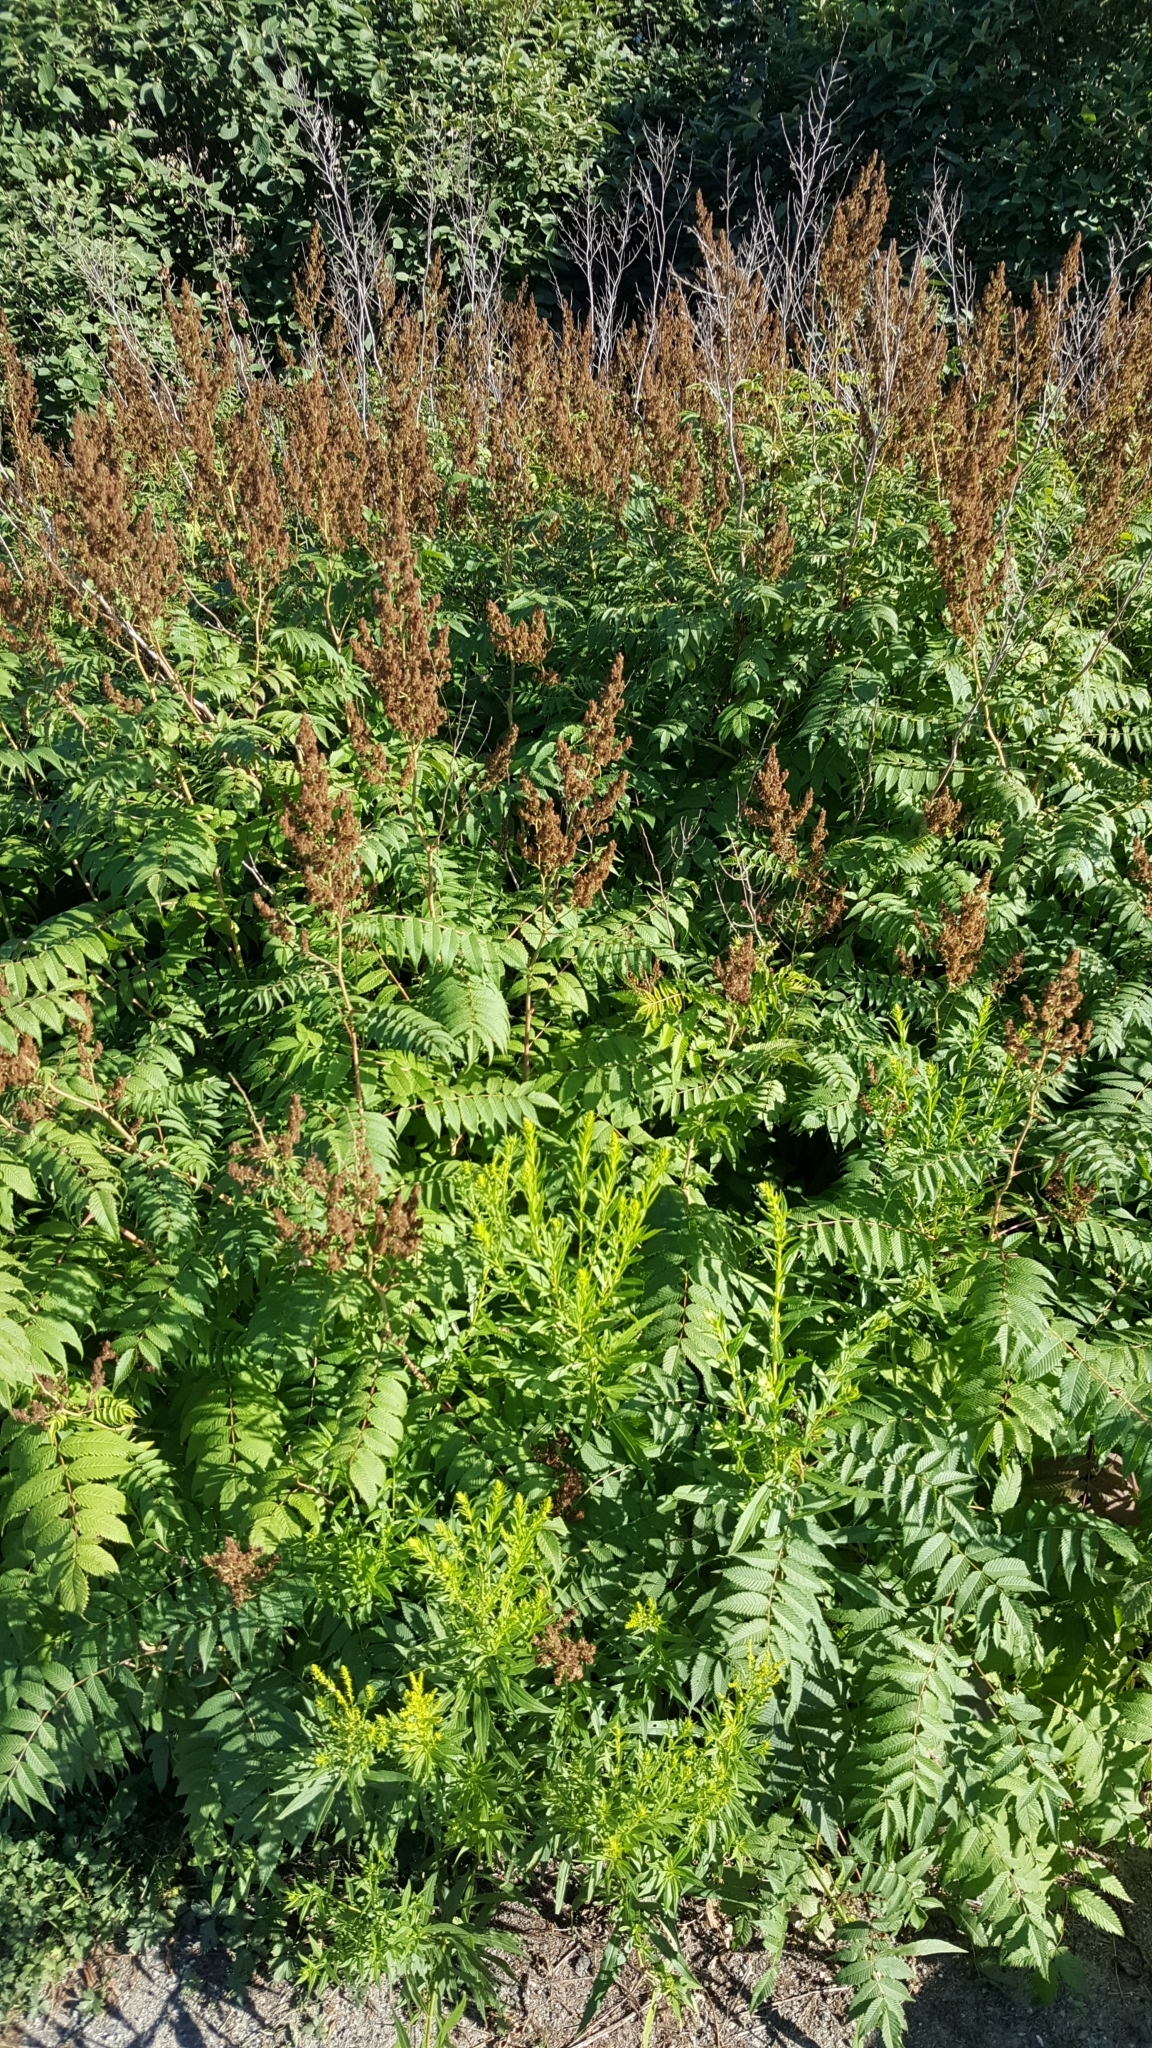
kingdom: Plantae
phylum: Tracheophyta
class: Magnoliopsida
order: Rosales
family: Rosaceae
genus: Sorbaria
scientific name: Sorbaria sorbifolia
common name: False spiraea
